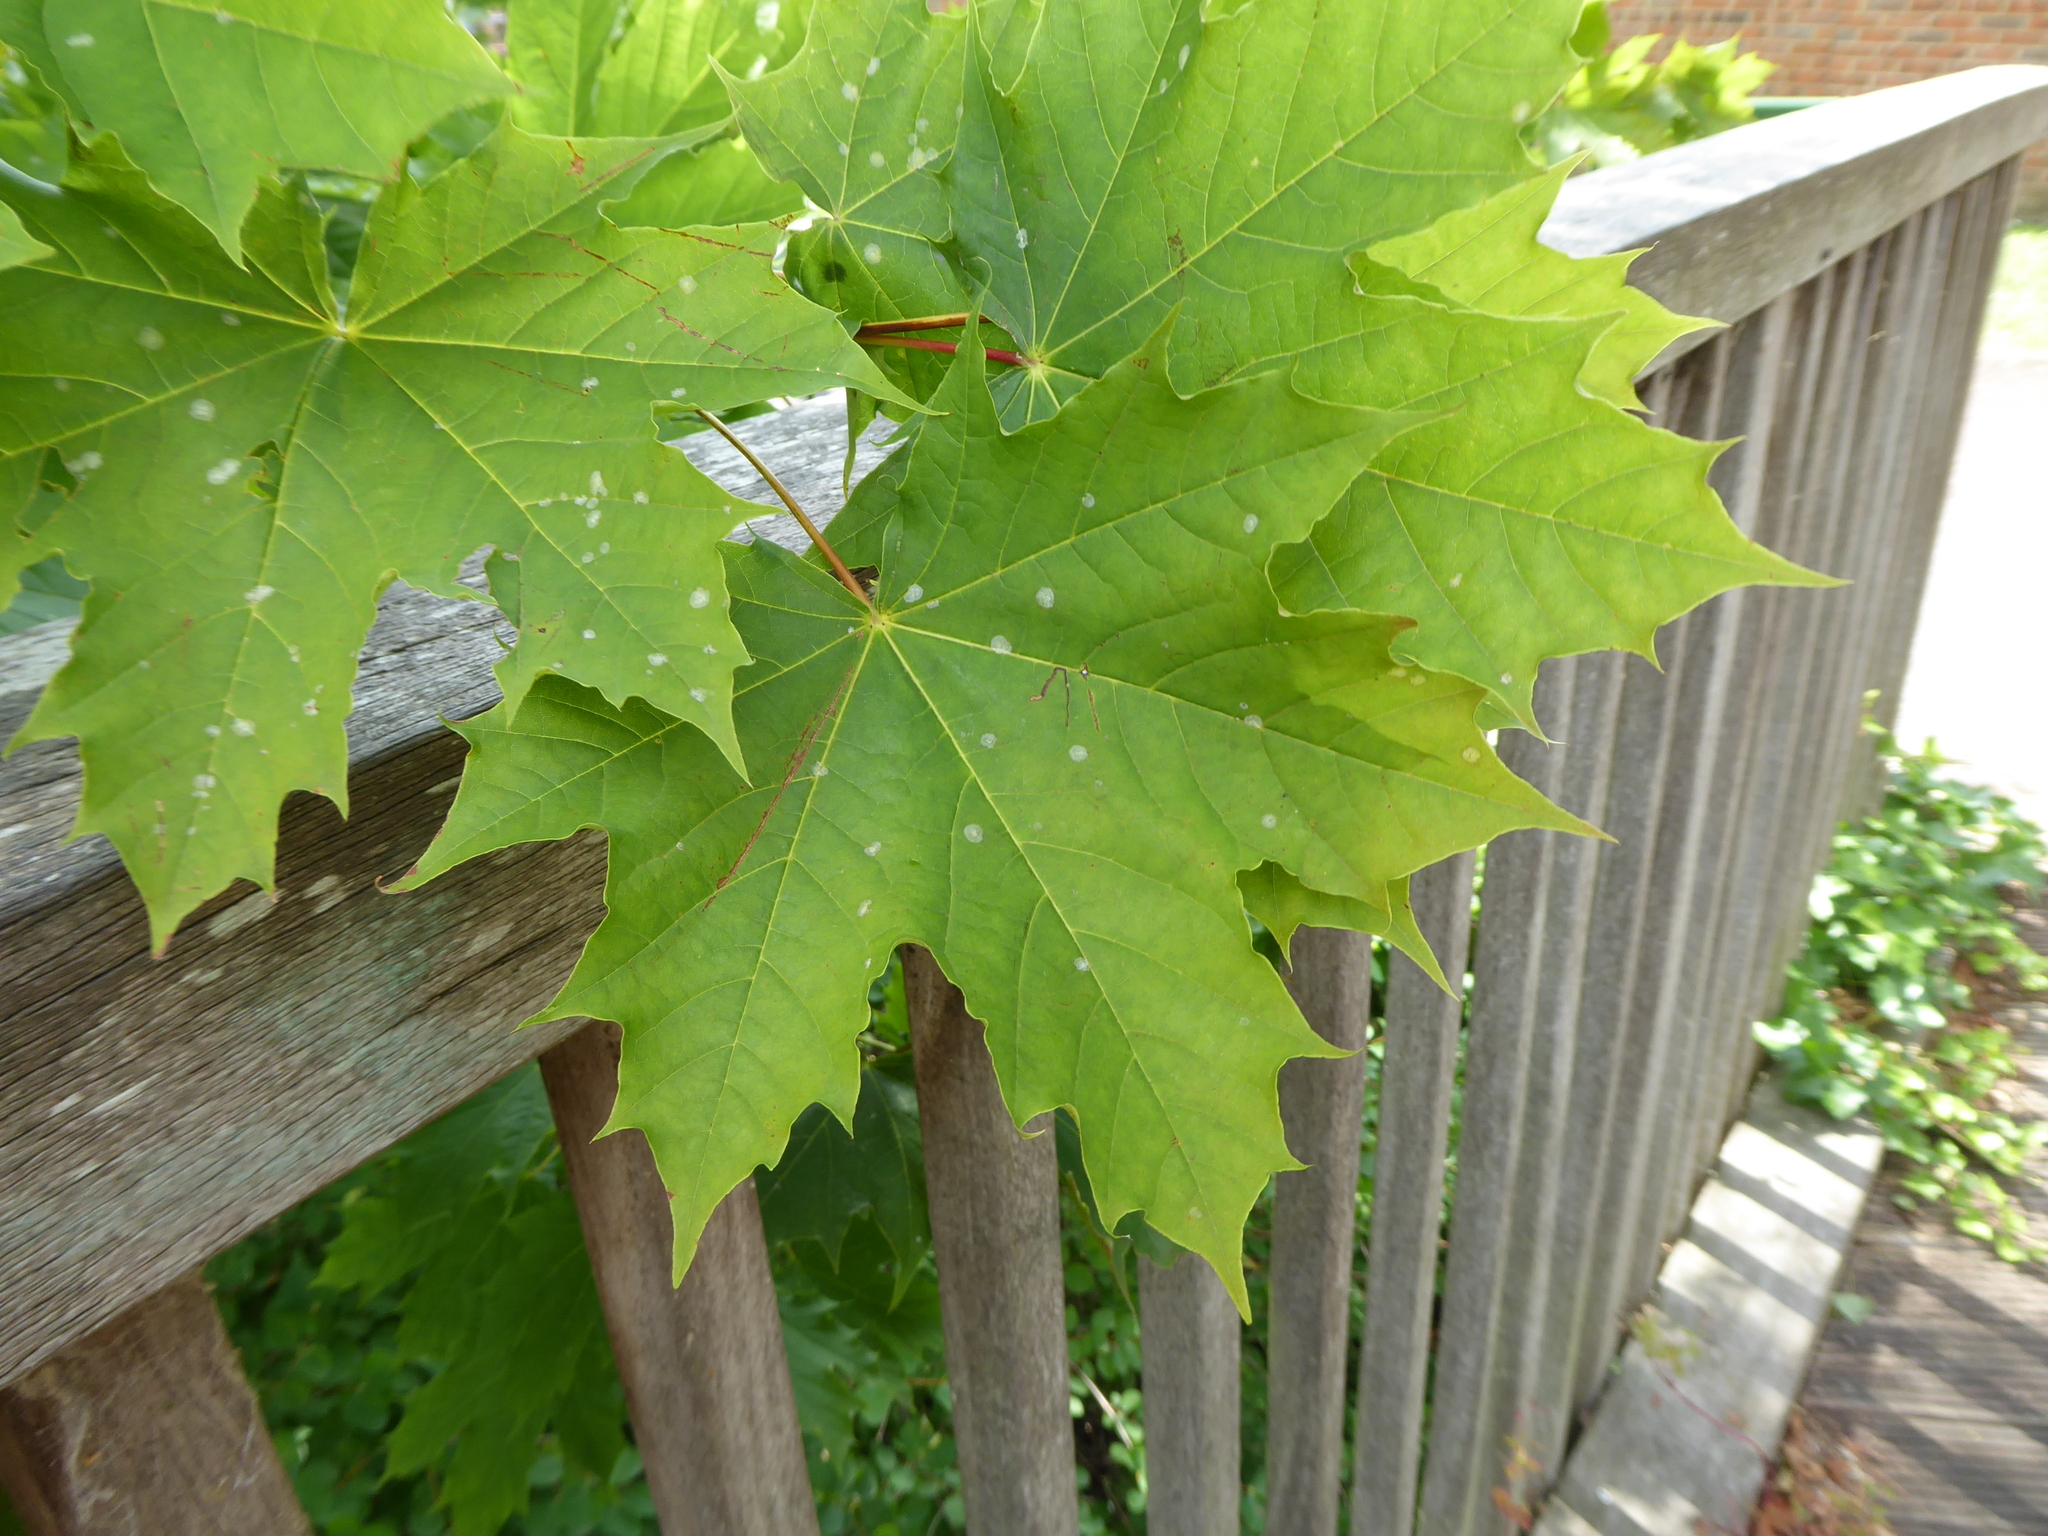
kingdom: Plantae
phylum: Tracheophyta
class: Magnoliopsida
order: Sapindales
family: Sapindaceae
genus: Acer
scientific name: Acer platanoides
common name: Norway maple
